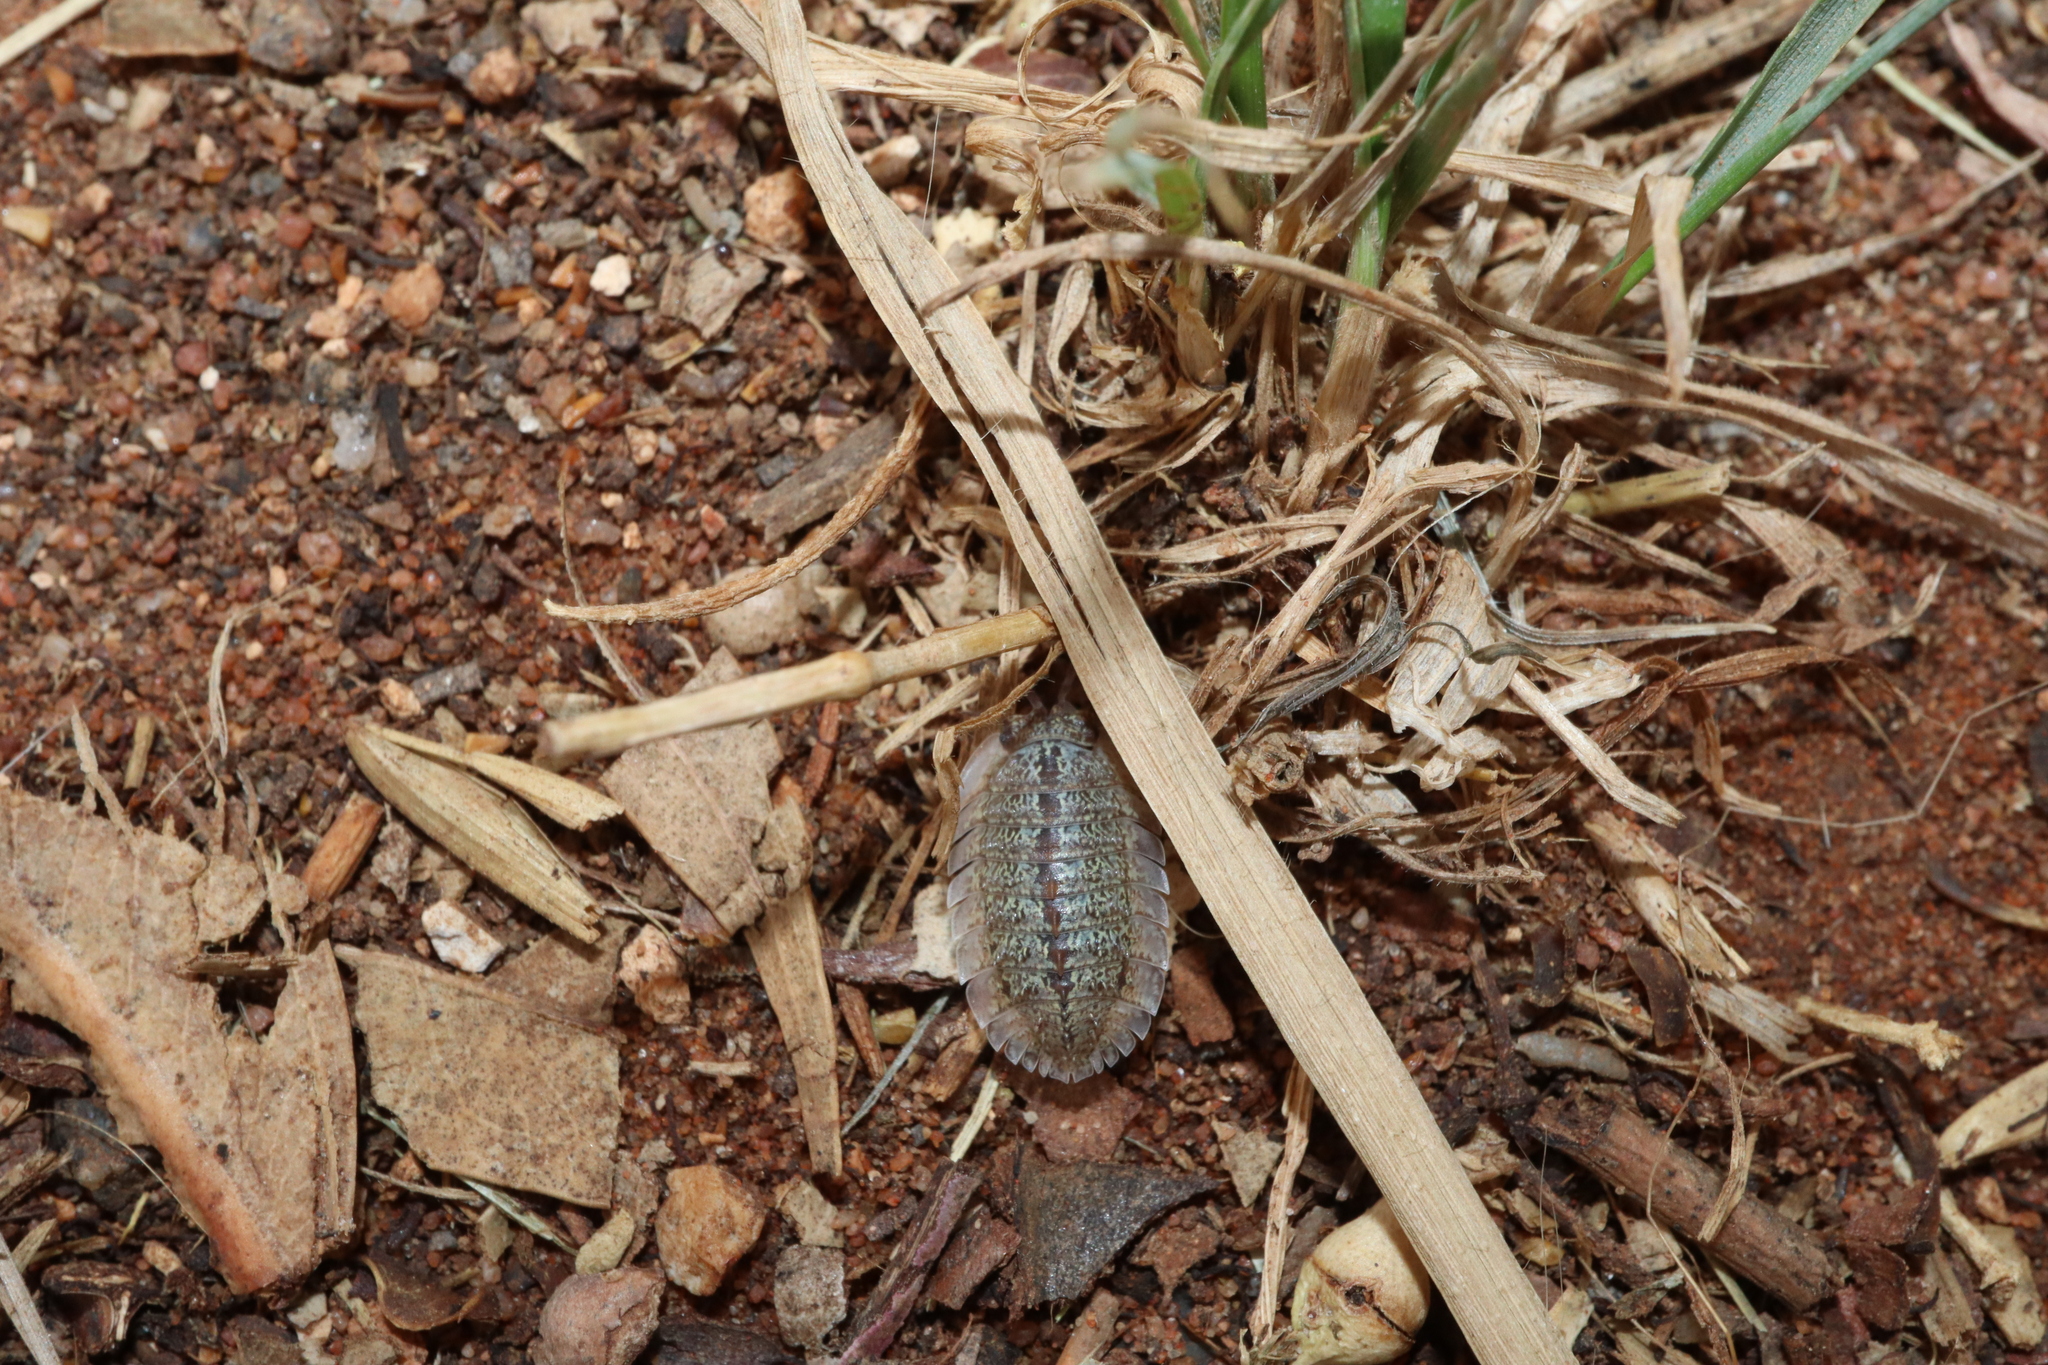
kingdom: Animalia
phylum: Arthropoda
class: Malacostraca
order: Isopoda
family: Armadillidae
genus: Australiodillo
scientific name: Australiodillo bifrons
